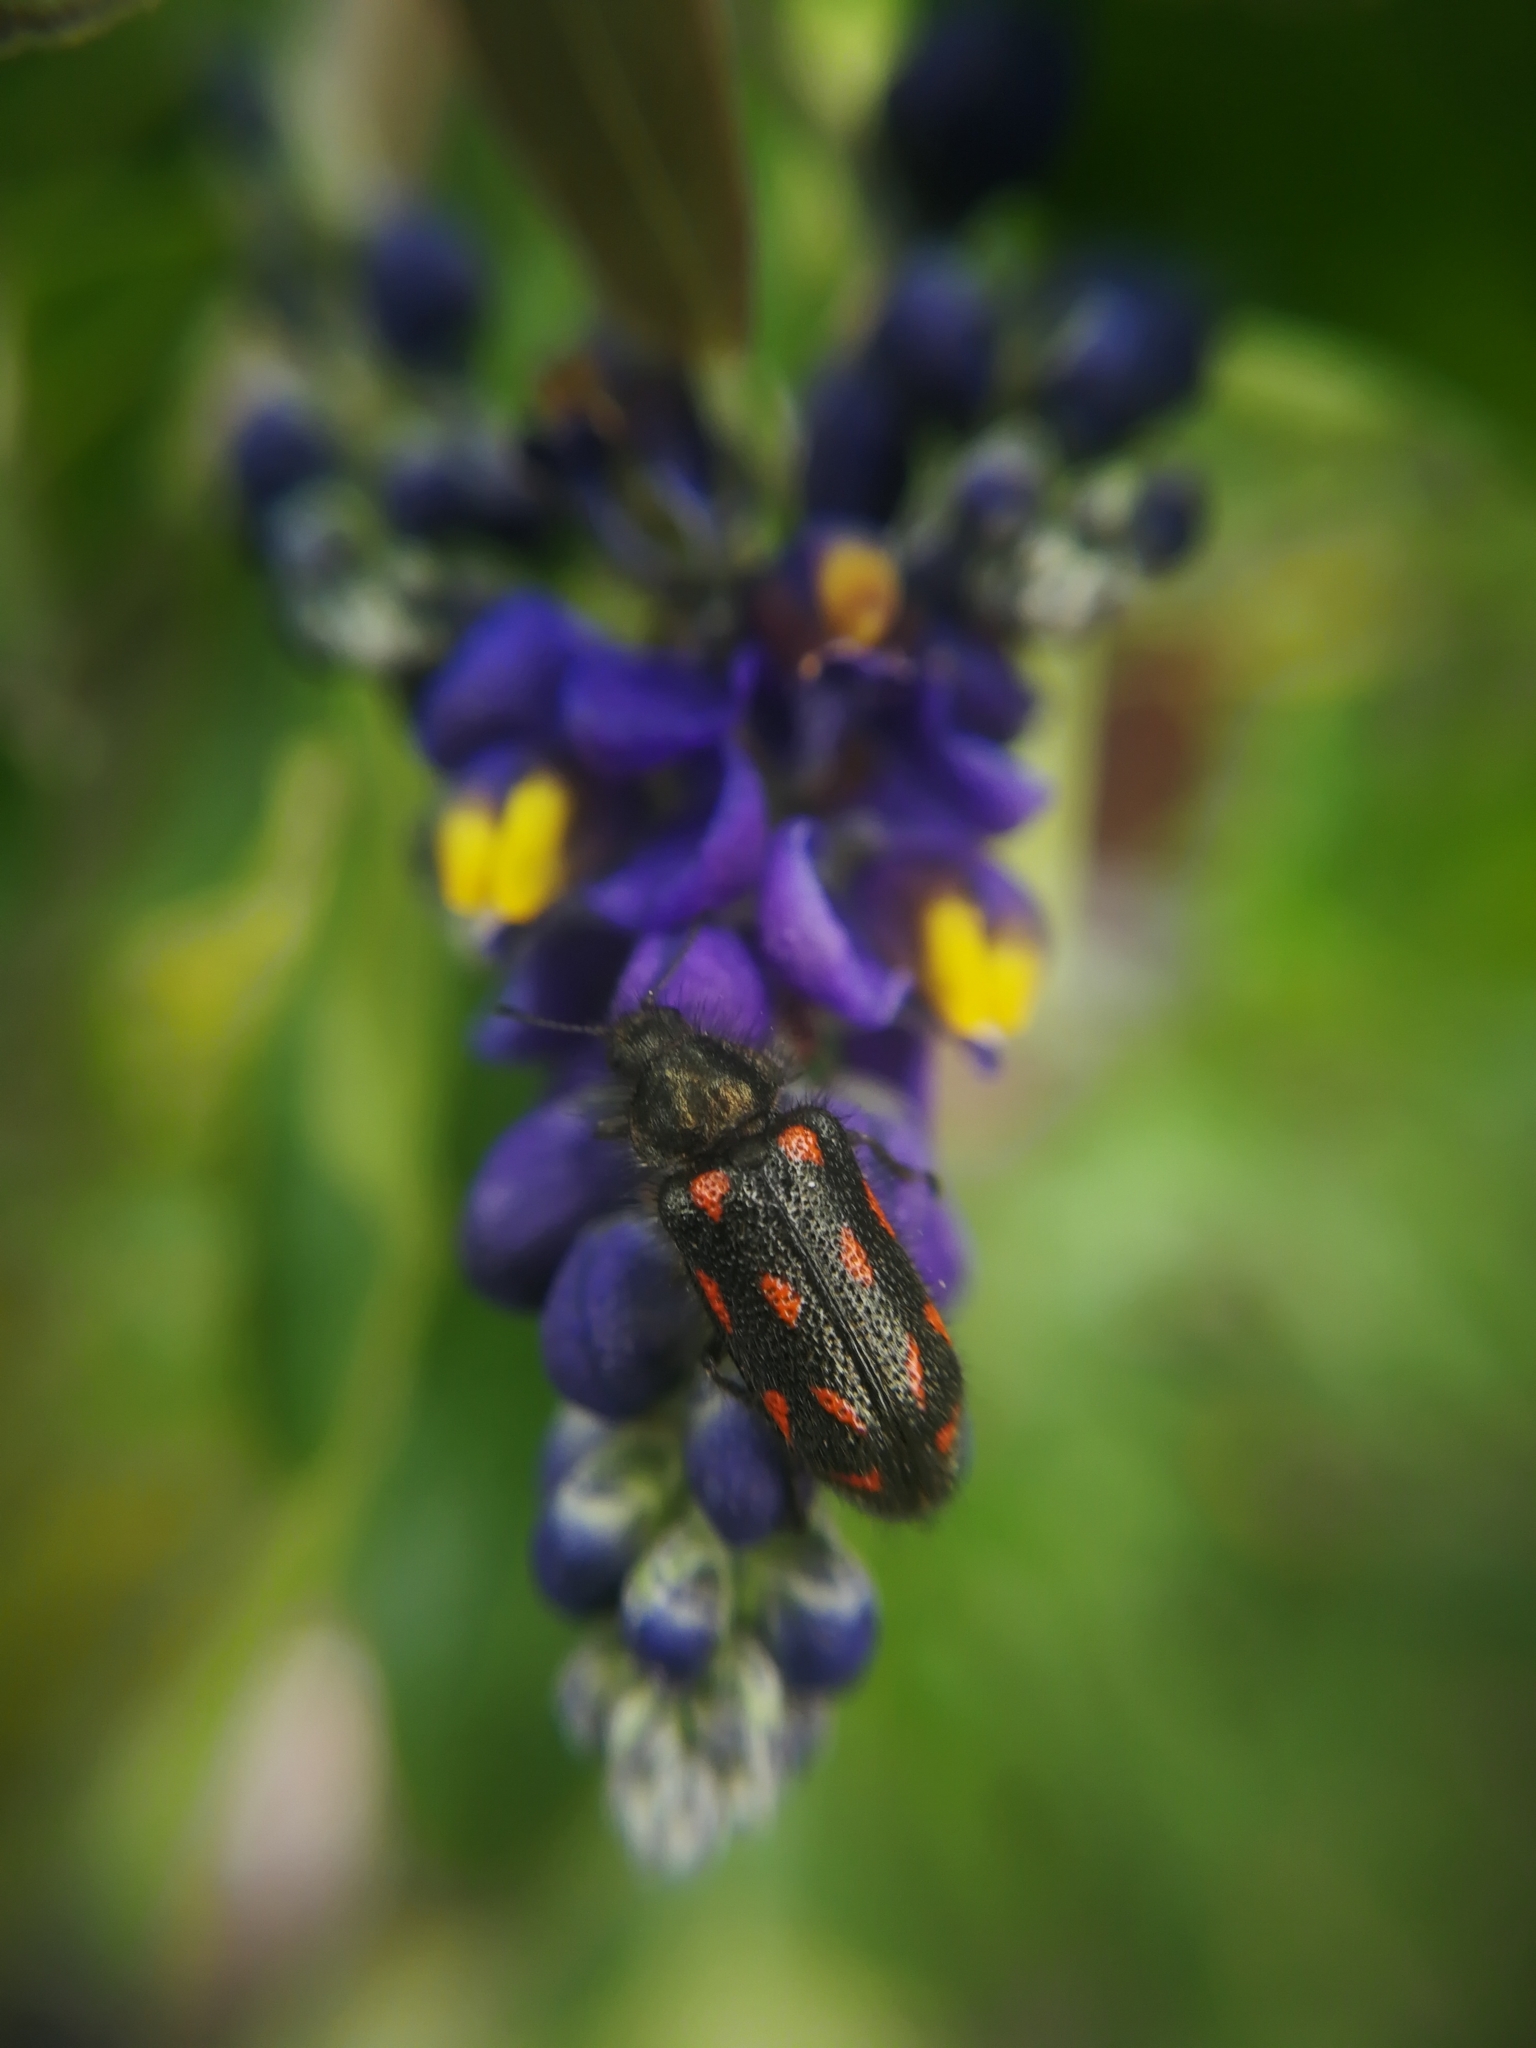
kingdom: Animalia
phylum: Arthropoda
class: Insecta
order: Coleoptera
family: Melyridae
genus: Astylus
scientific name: Astylus
